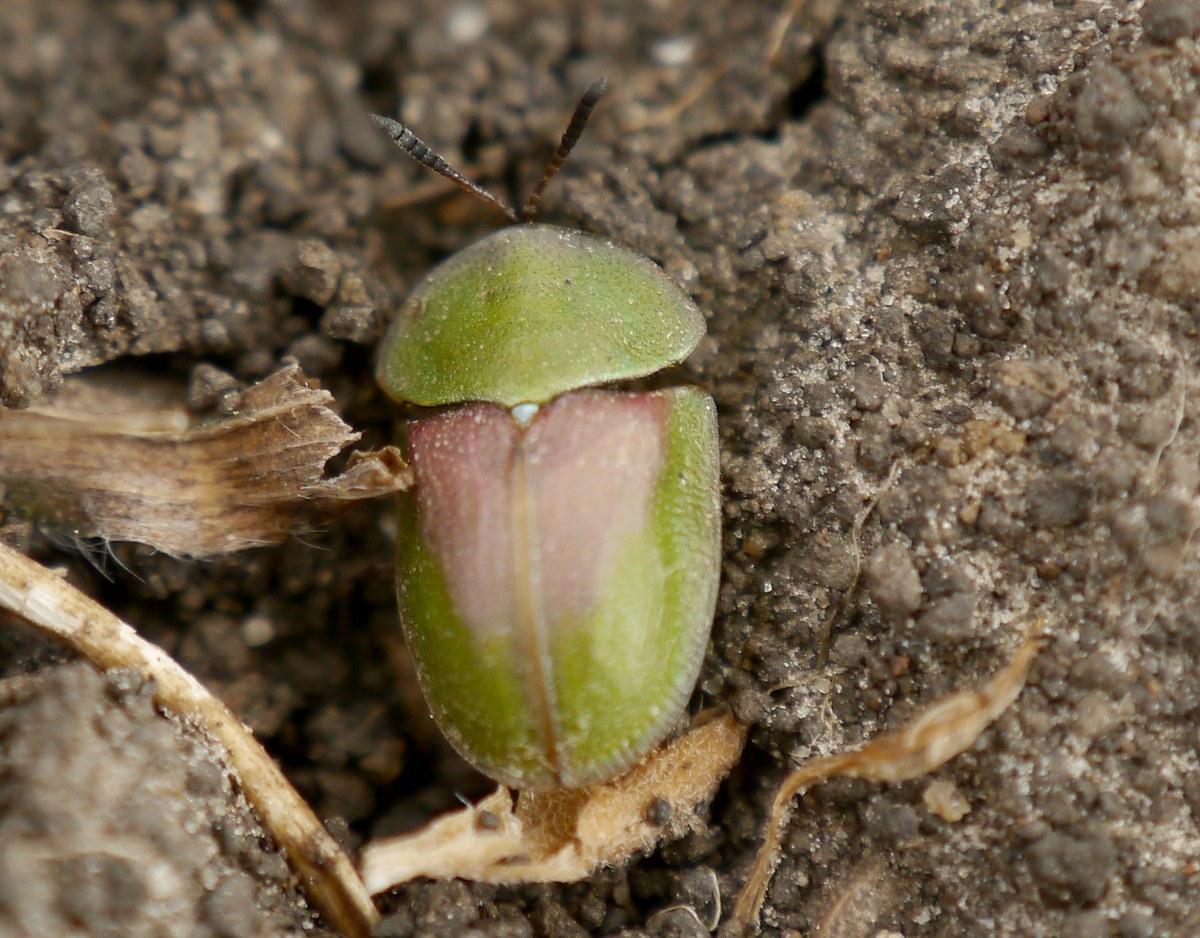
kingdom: Animalia
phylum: Arthropoda
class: Insecta
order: Coleoptera
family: Chrysomelidae
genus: Cassida
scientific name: Cassida rufovirens
